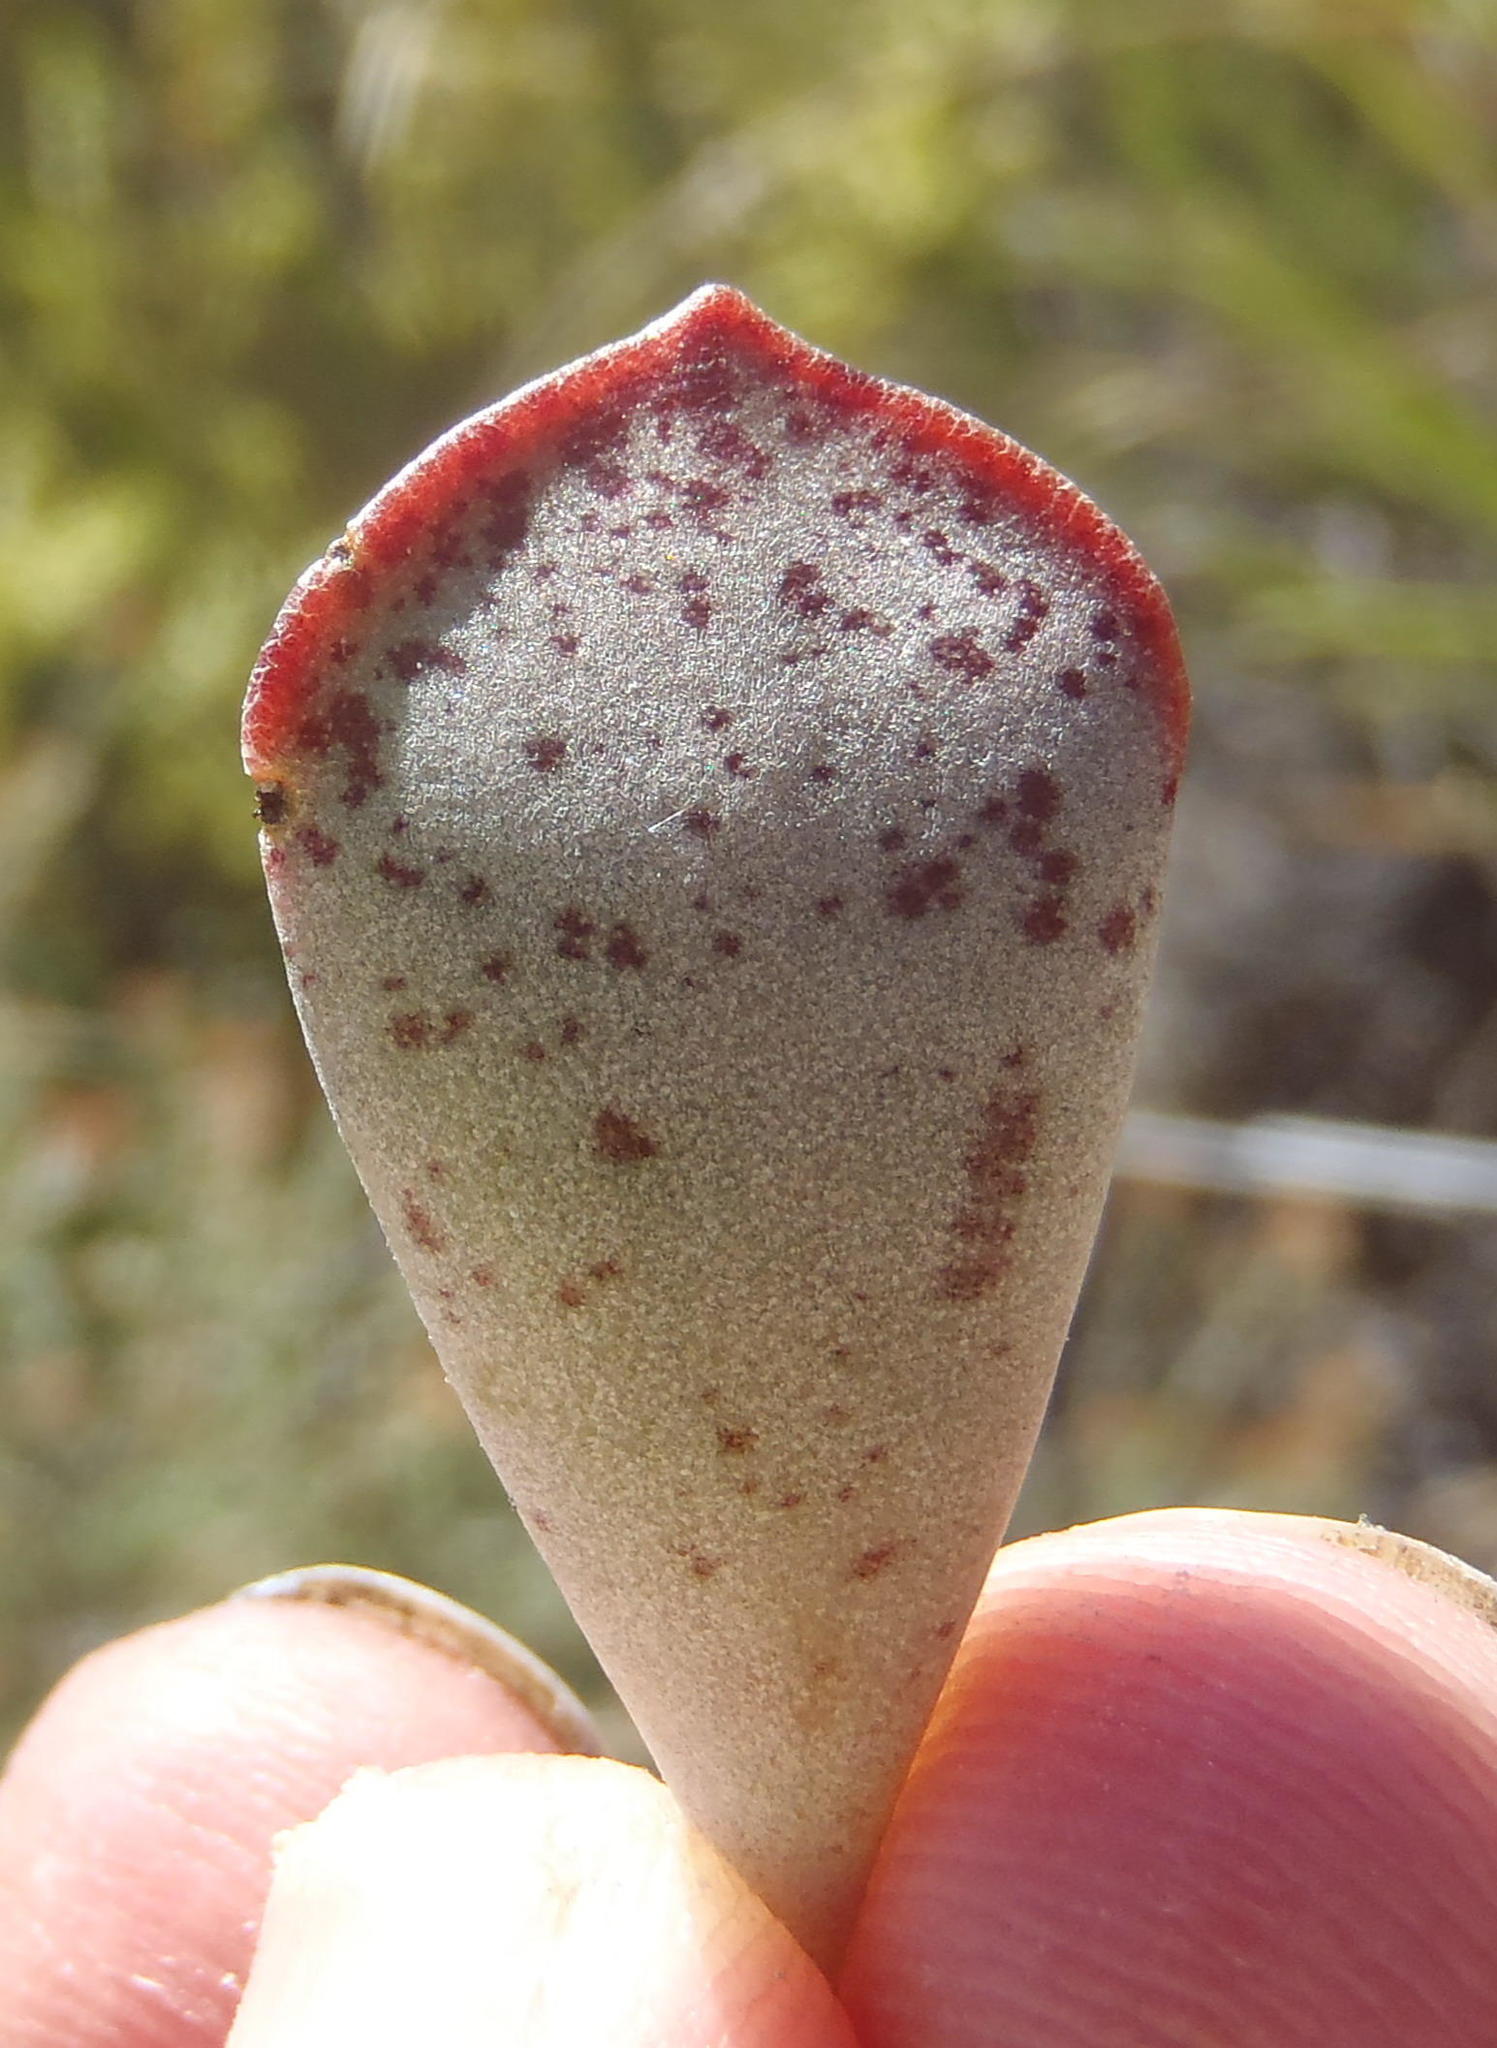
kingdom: Plantae
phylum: Tracheophyta
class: Magnoliopsida
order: Saxifragales
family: Crassulaceae
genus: Adromischus
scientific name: Adromischus triflorus
